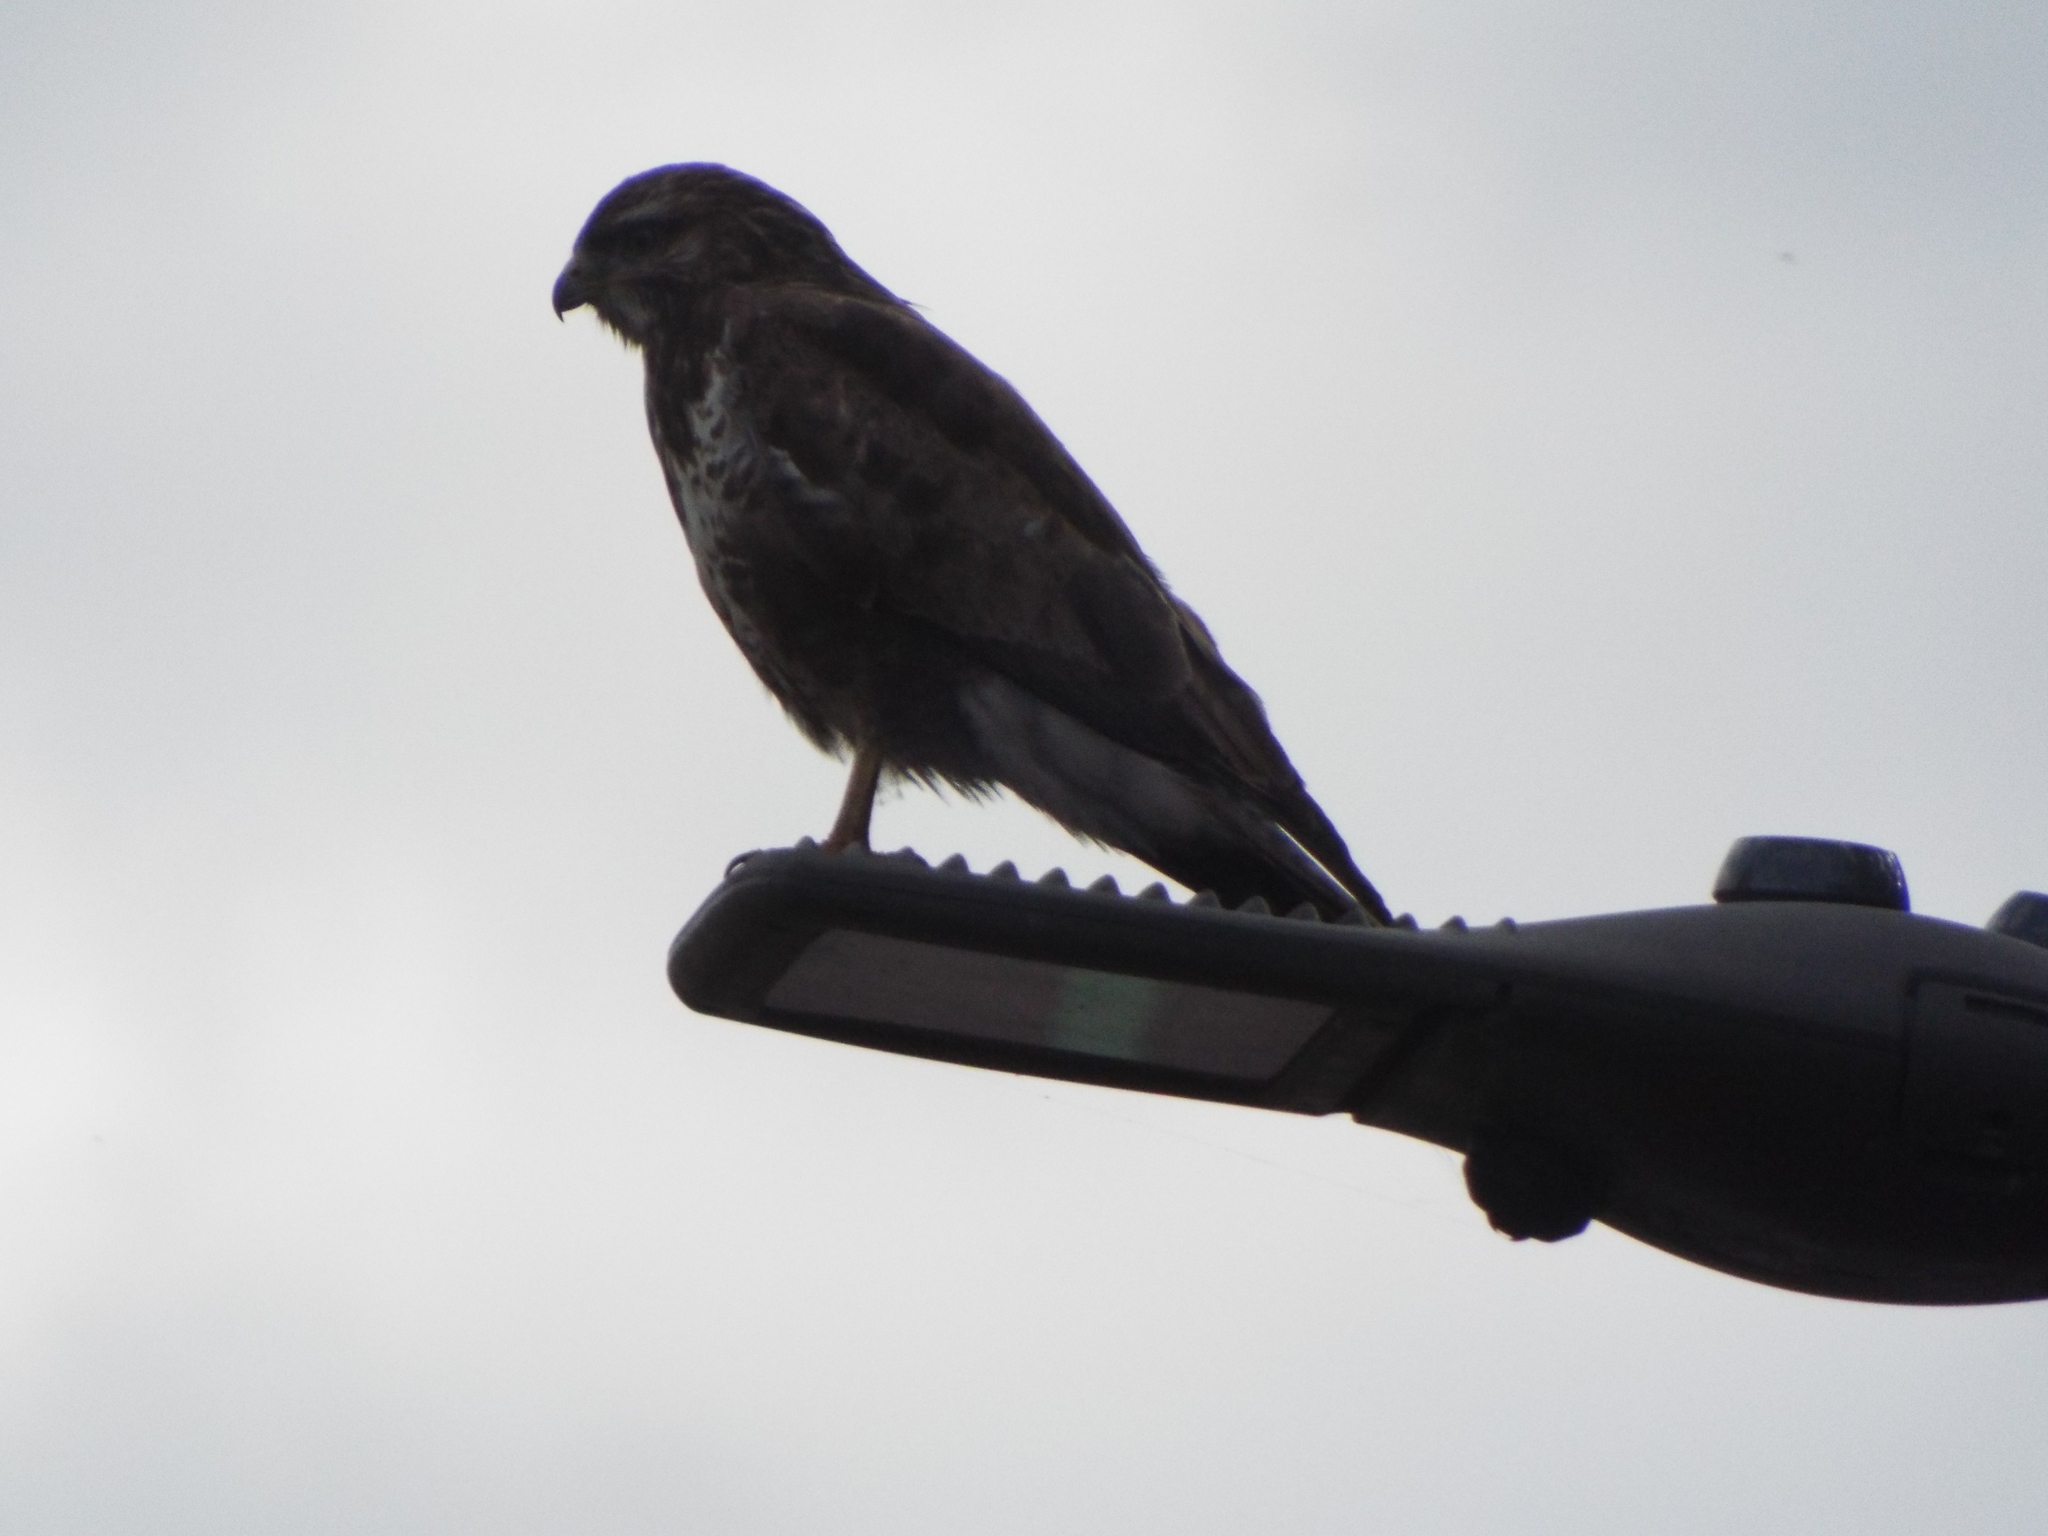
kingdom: Animalia
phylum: Chordata
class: Aves
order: Accipitriformes
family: Accipitridae
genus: Buteo
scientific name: Buteo buteo
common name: Common buzzard
